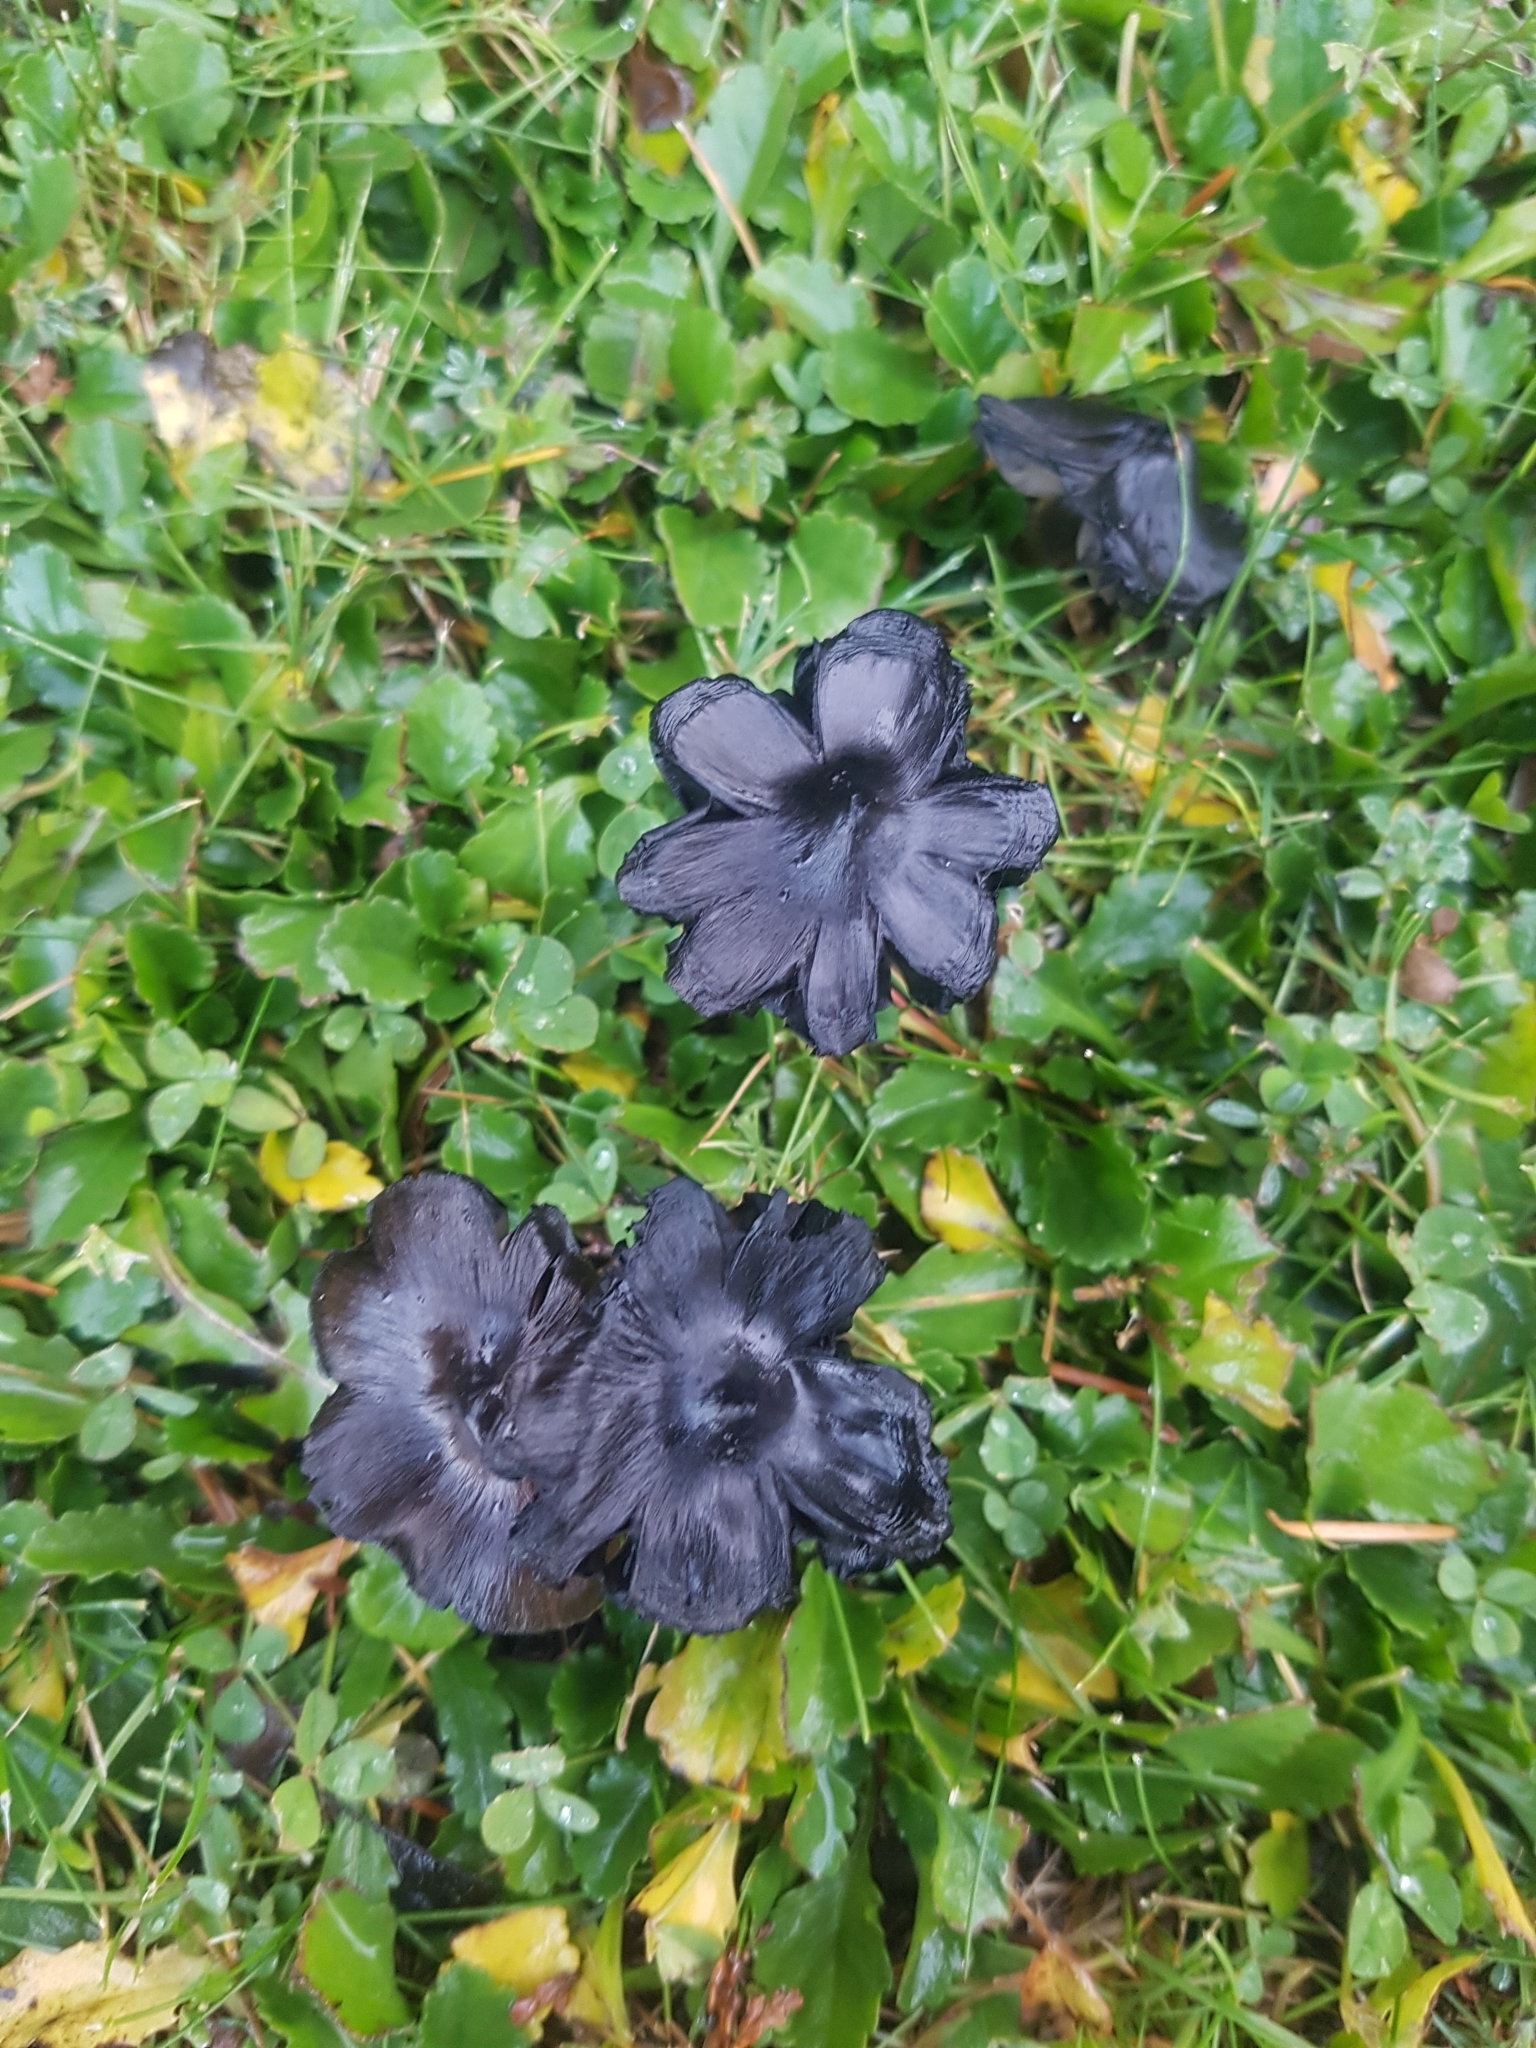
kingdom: Fungi
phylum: Basidiomycota
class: Agaricomycetes
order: Agaricales
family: Hygrophoraceae
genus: Hygrocybe
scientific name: Hygrocybe conica
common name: Blackening wax-cap
